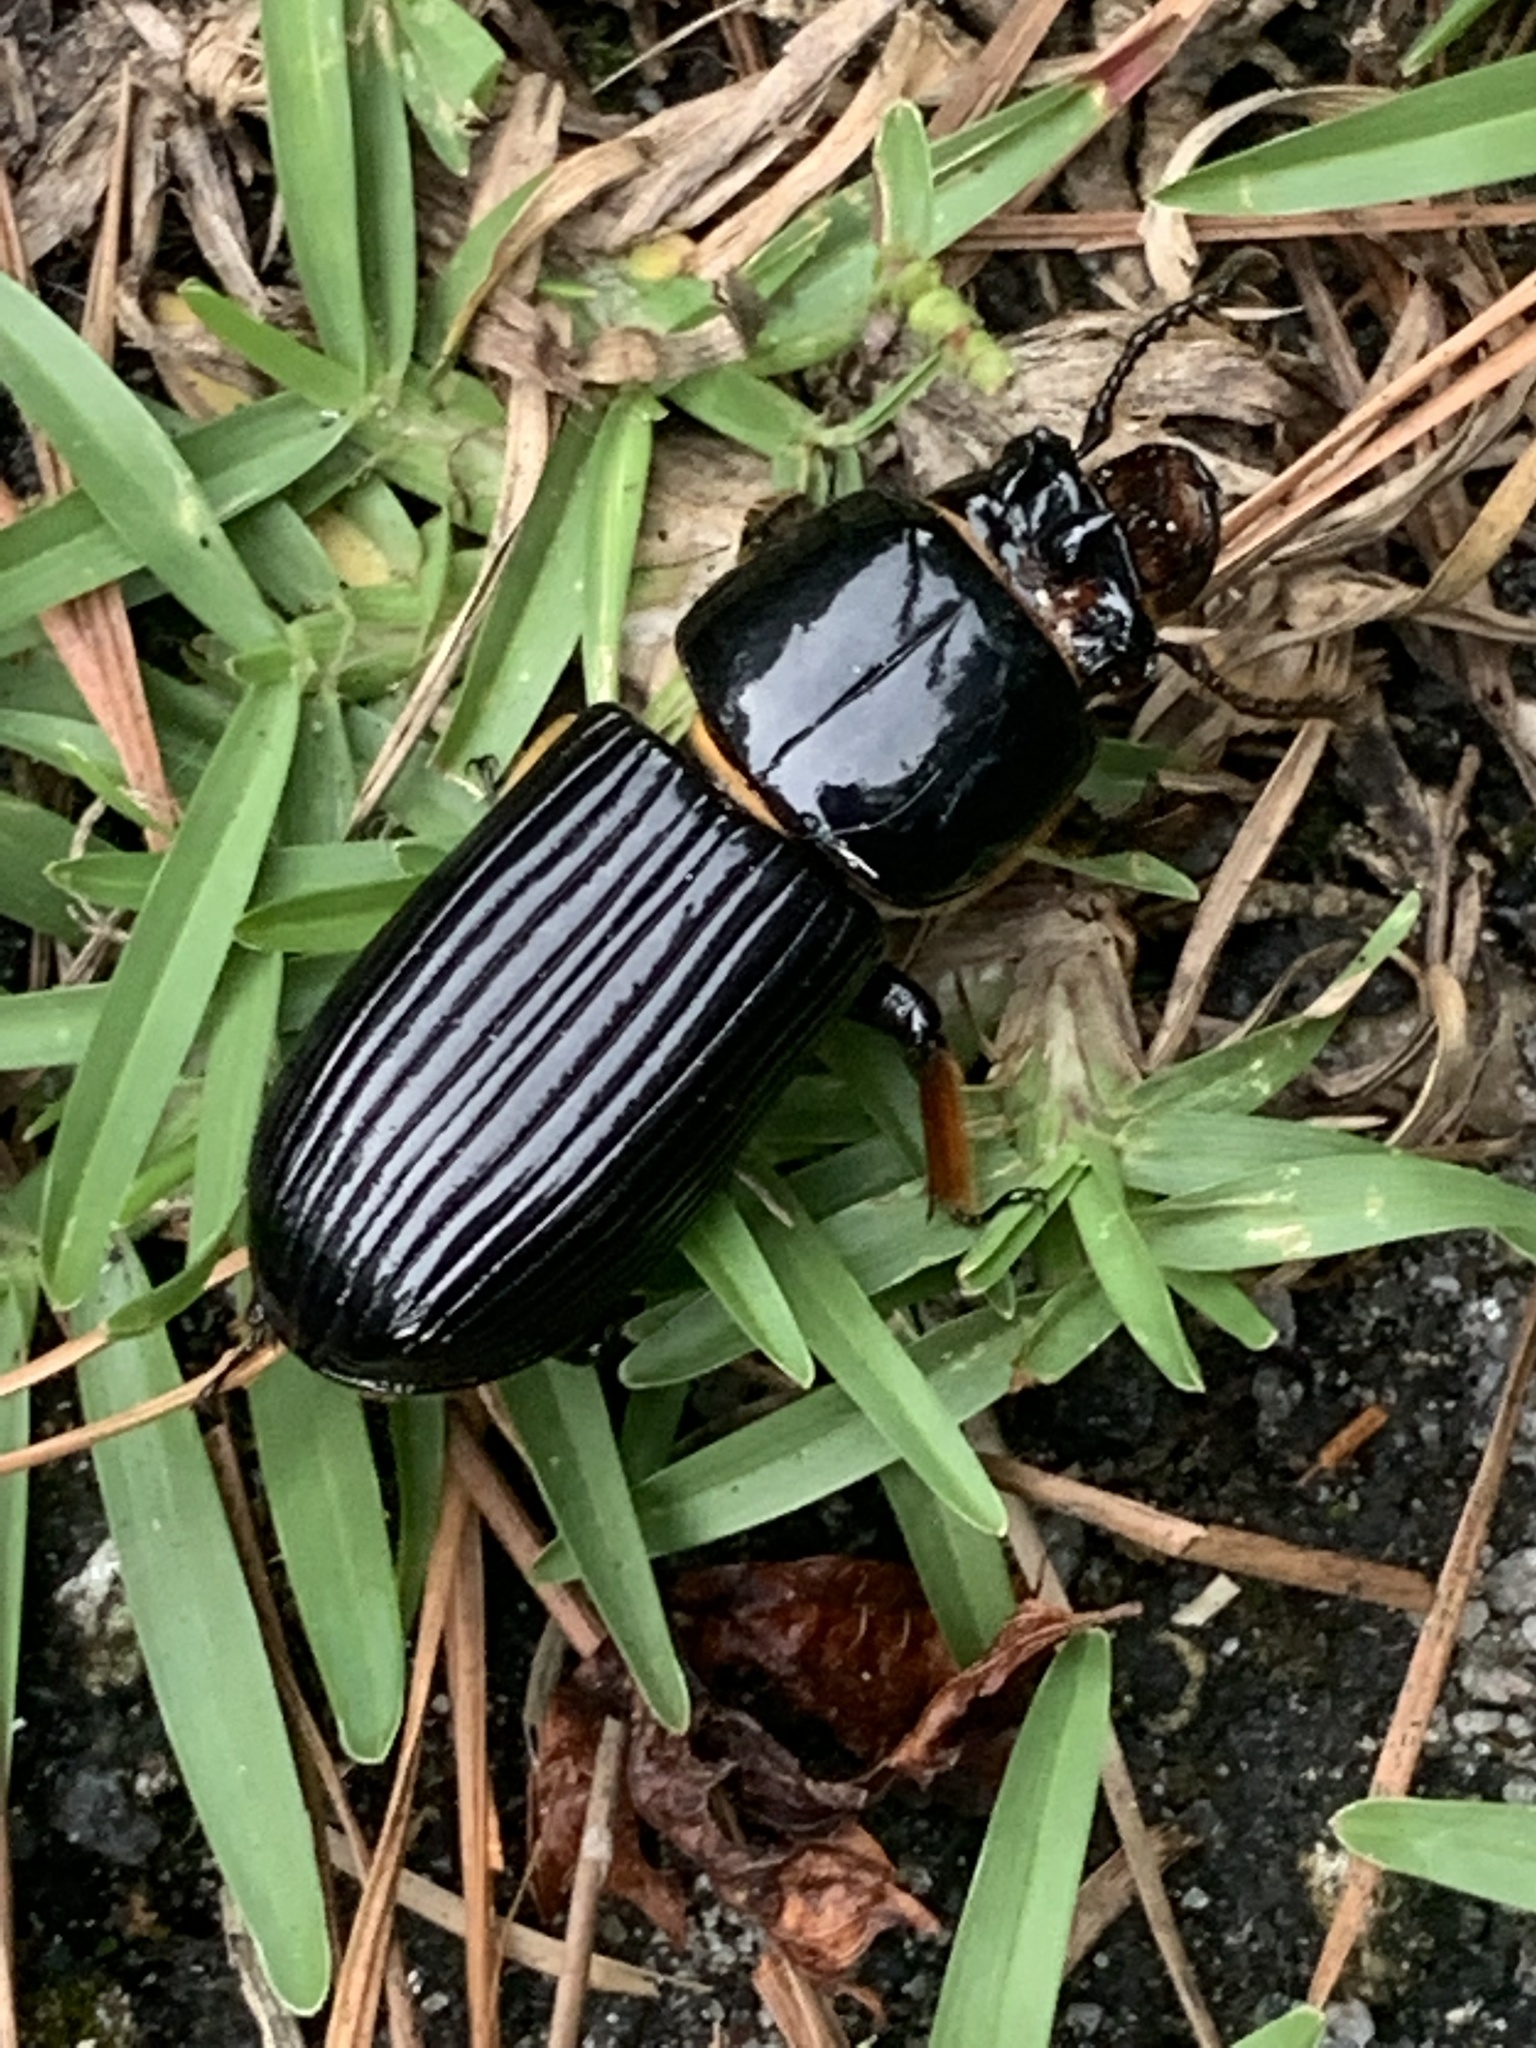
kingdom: Animalia
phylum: Arthropoda
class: Insecta
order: Coleoptera
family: Passalidae
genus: Odontotaenius
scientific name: Odontotaenius disjunctus
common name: Patent leather beetle
